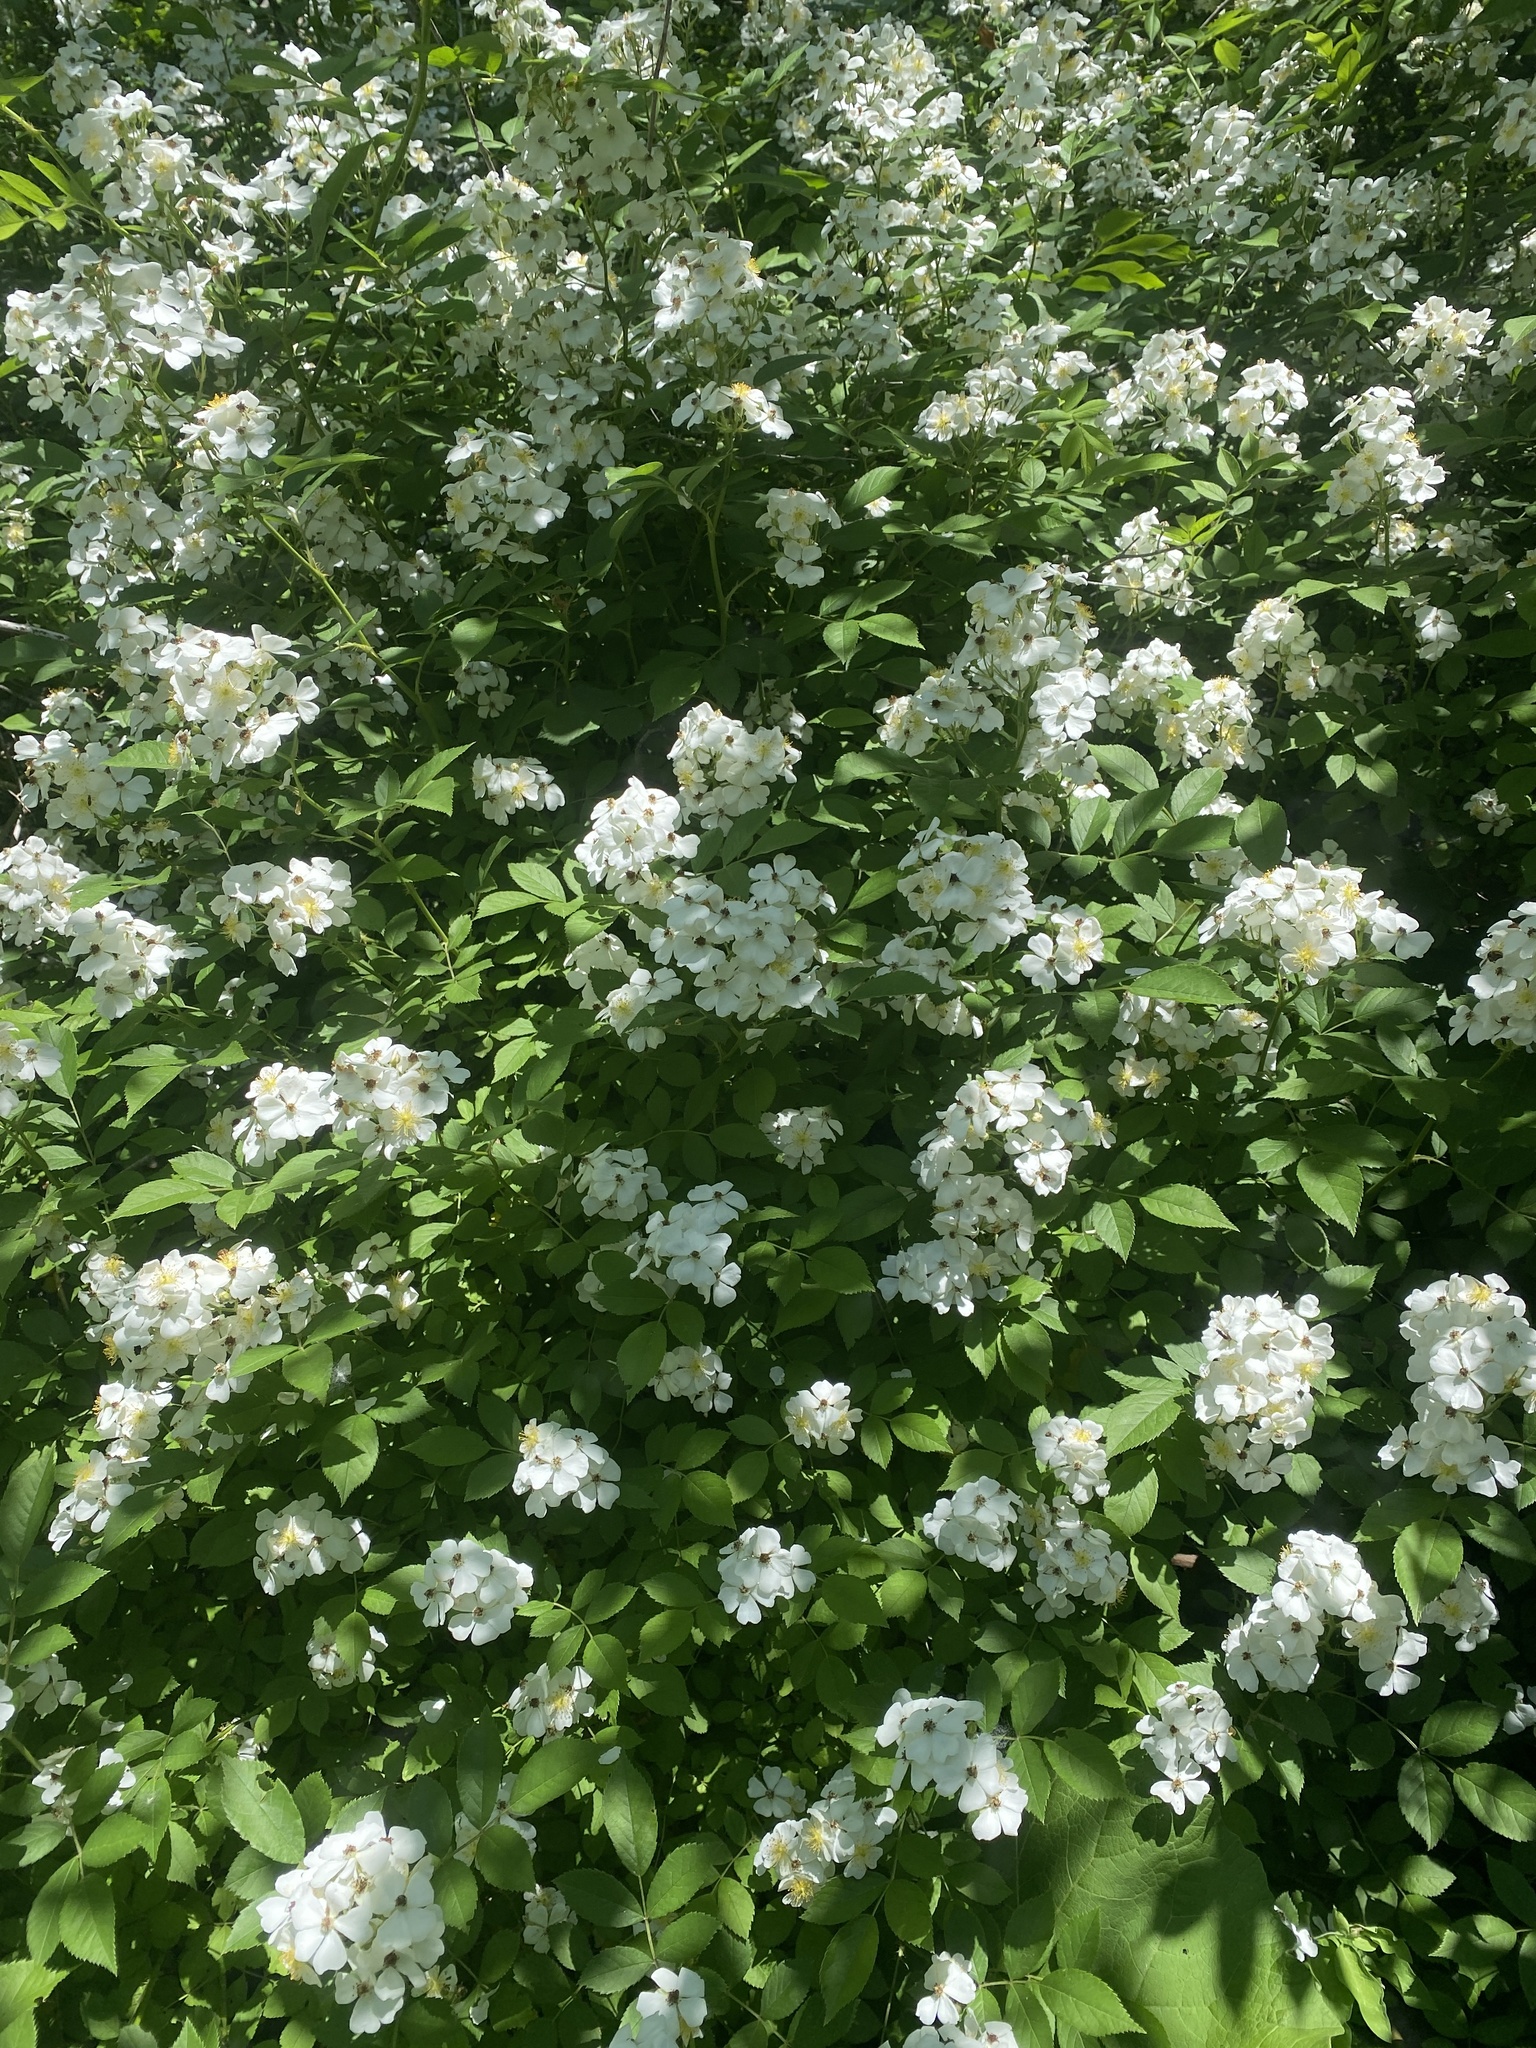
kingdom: Plantae
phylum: Tracheophyta
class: Magnoliopsida
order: Rosales
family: Rosaceae
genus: Rosa
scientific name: Rosa multiflora
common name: Multiflora rose
